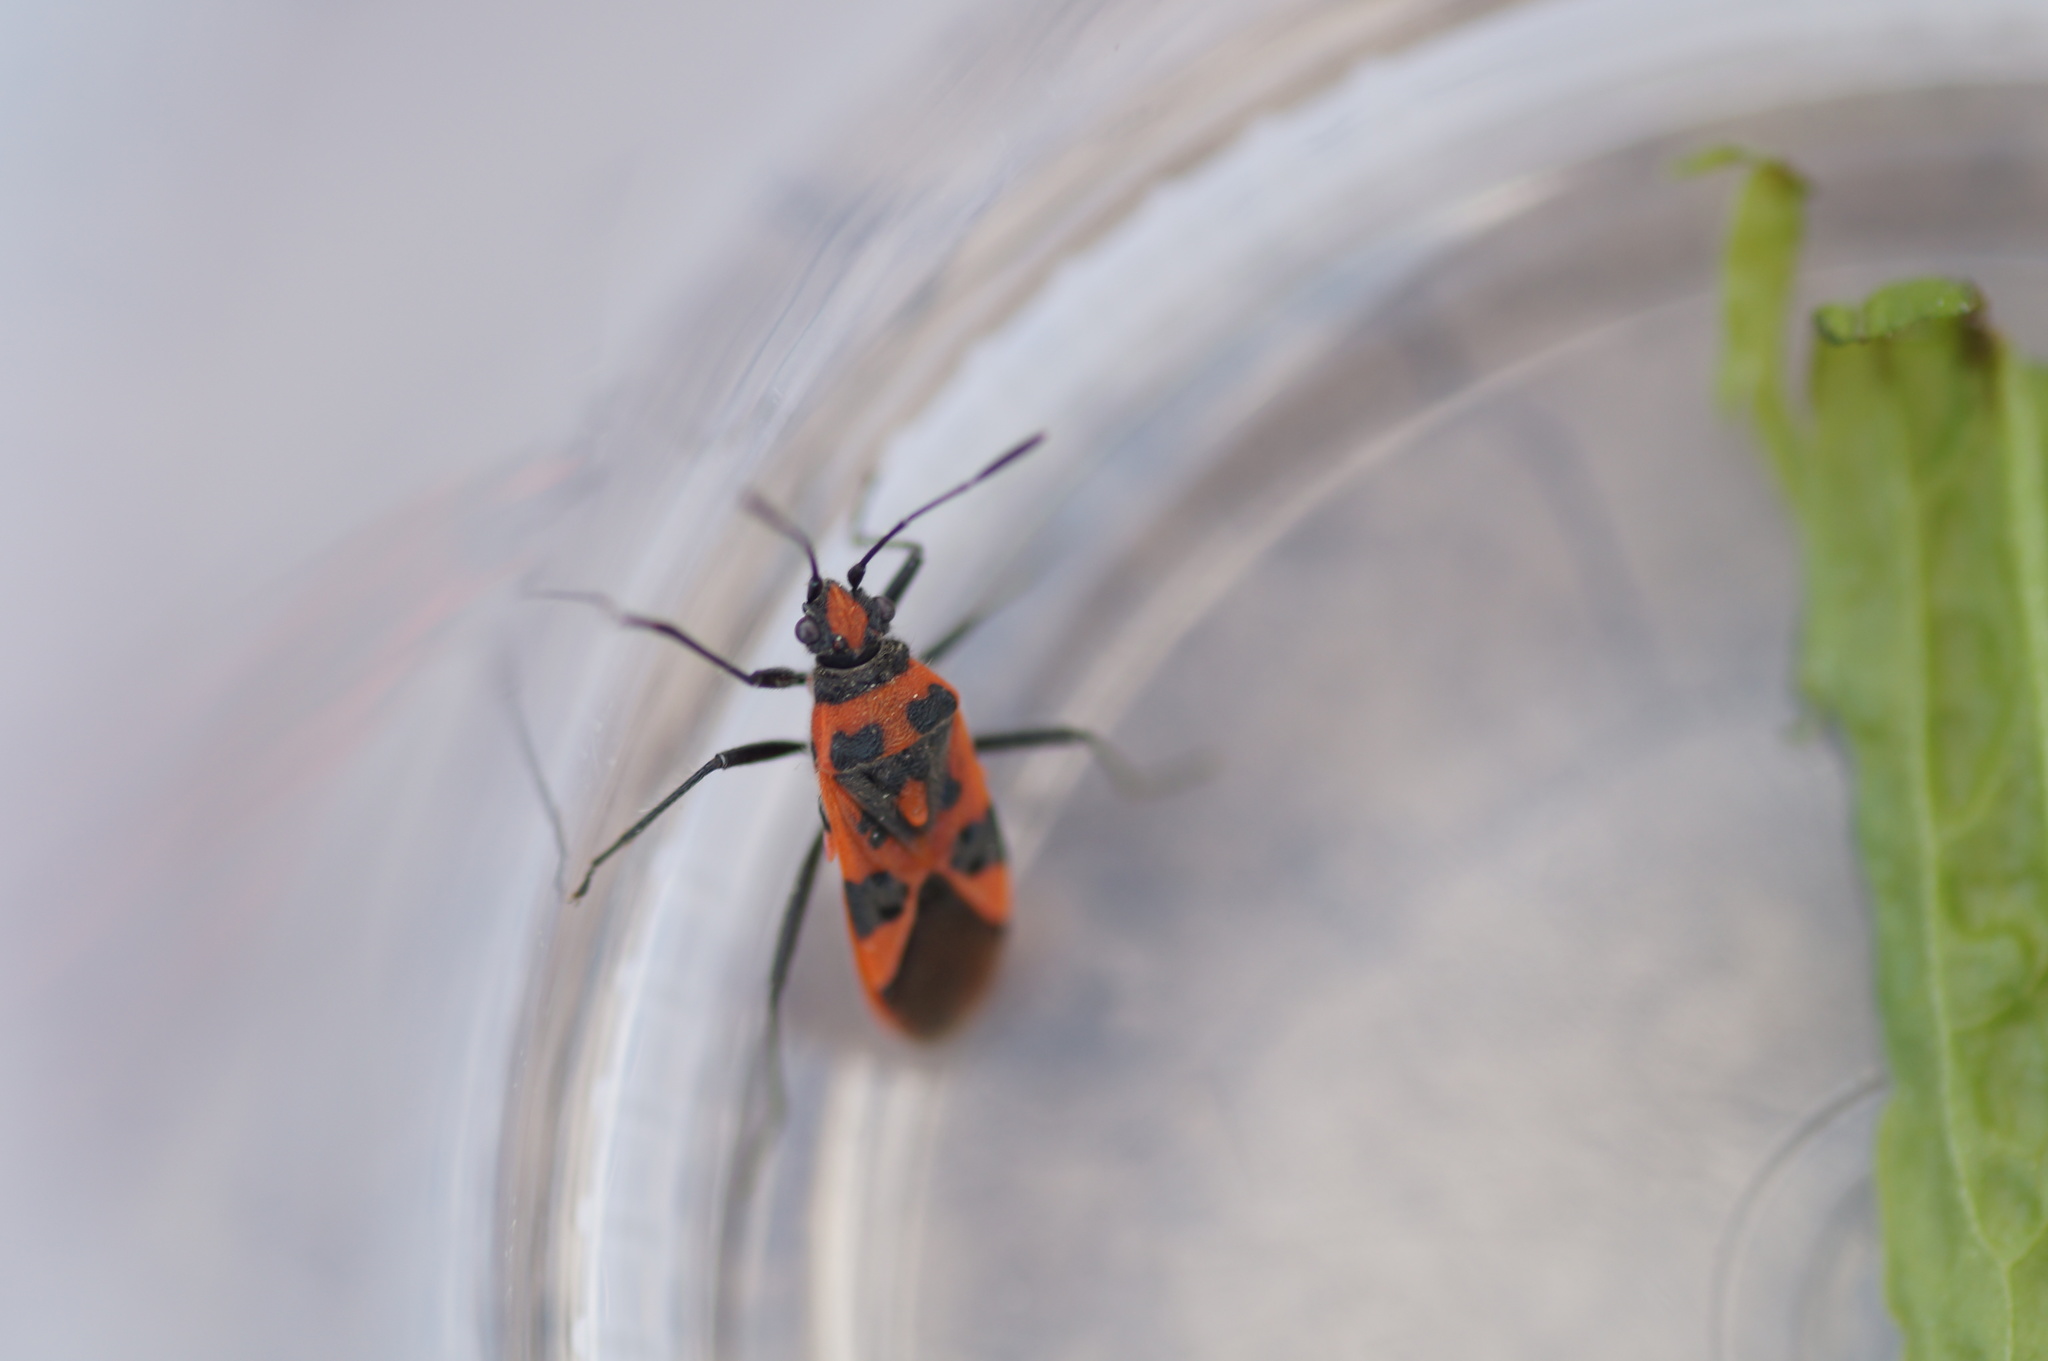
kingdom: Animalia
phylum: Arthropoda
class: Insecta
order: Hemiptera
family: Rhopalidae
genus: Corizus
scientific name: Corizus hyoscyami
